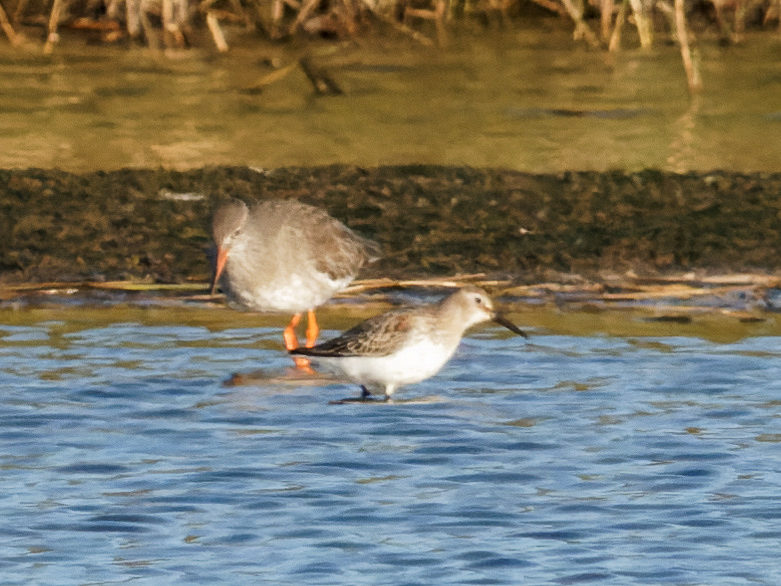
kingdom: Animalia
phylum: Chordata
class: Aves
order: Charadriiformes
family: Scolopacidae
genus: Calidris
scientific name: Calidris alpina
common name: Dunlin
